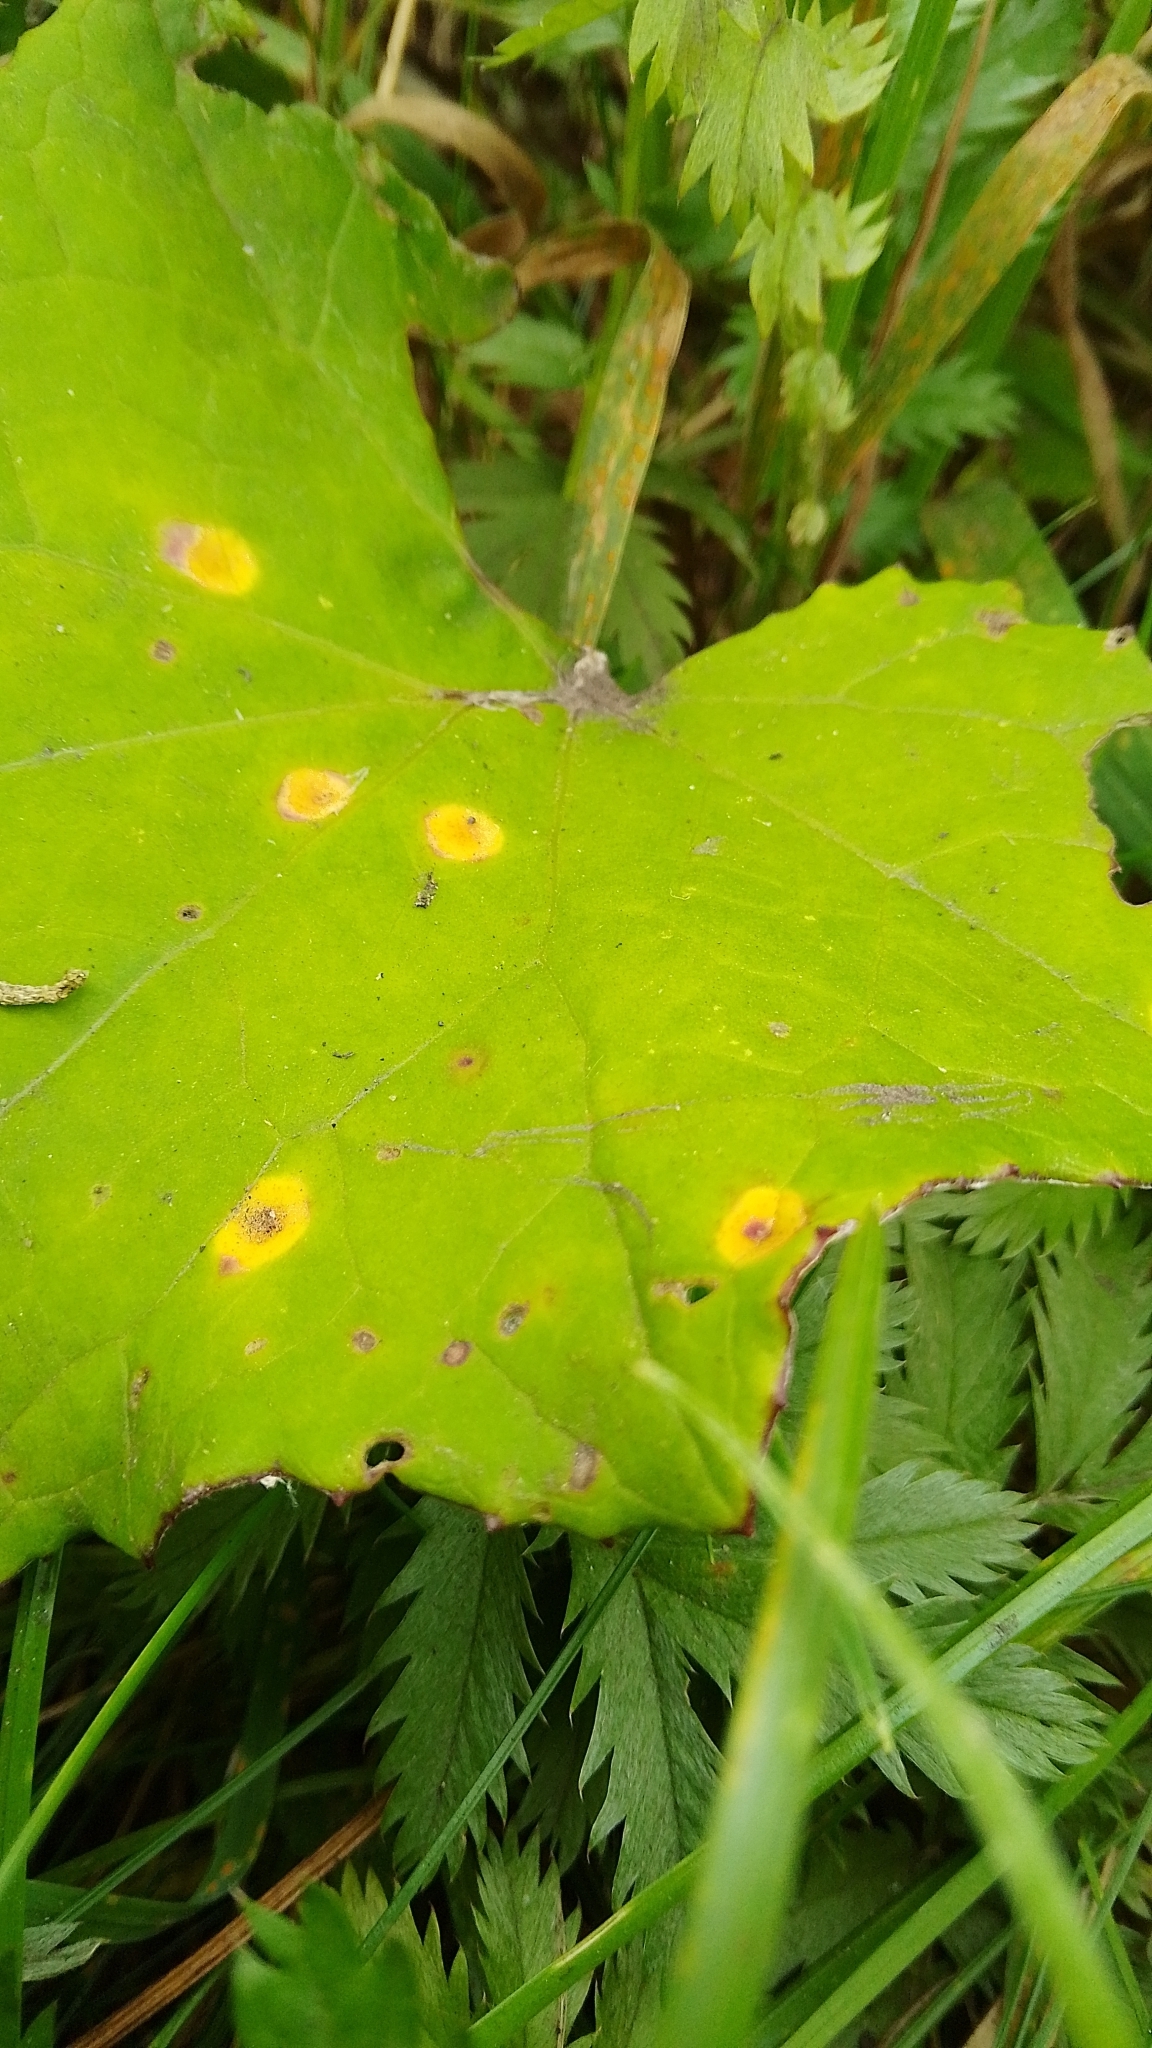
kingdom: Fungi
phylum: Basidiomycota
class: Pucciniomycetes
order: Pucciniales
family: Coleosporiaceae
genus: Coleosporium
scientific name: Coleosporium tussilaginis
